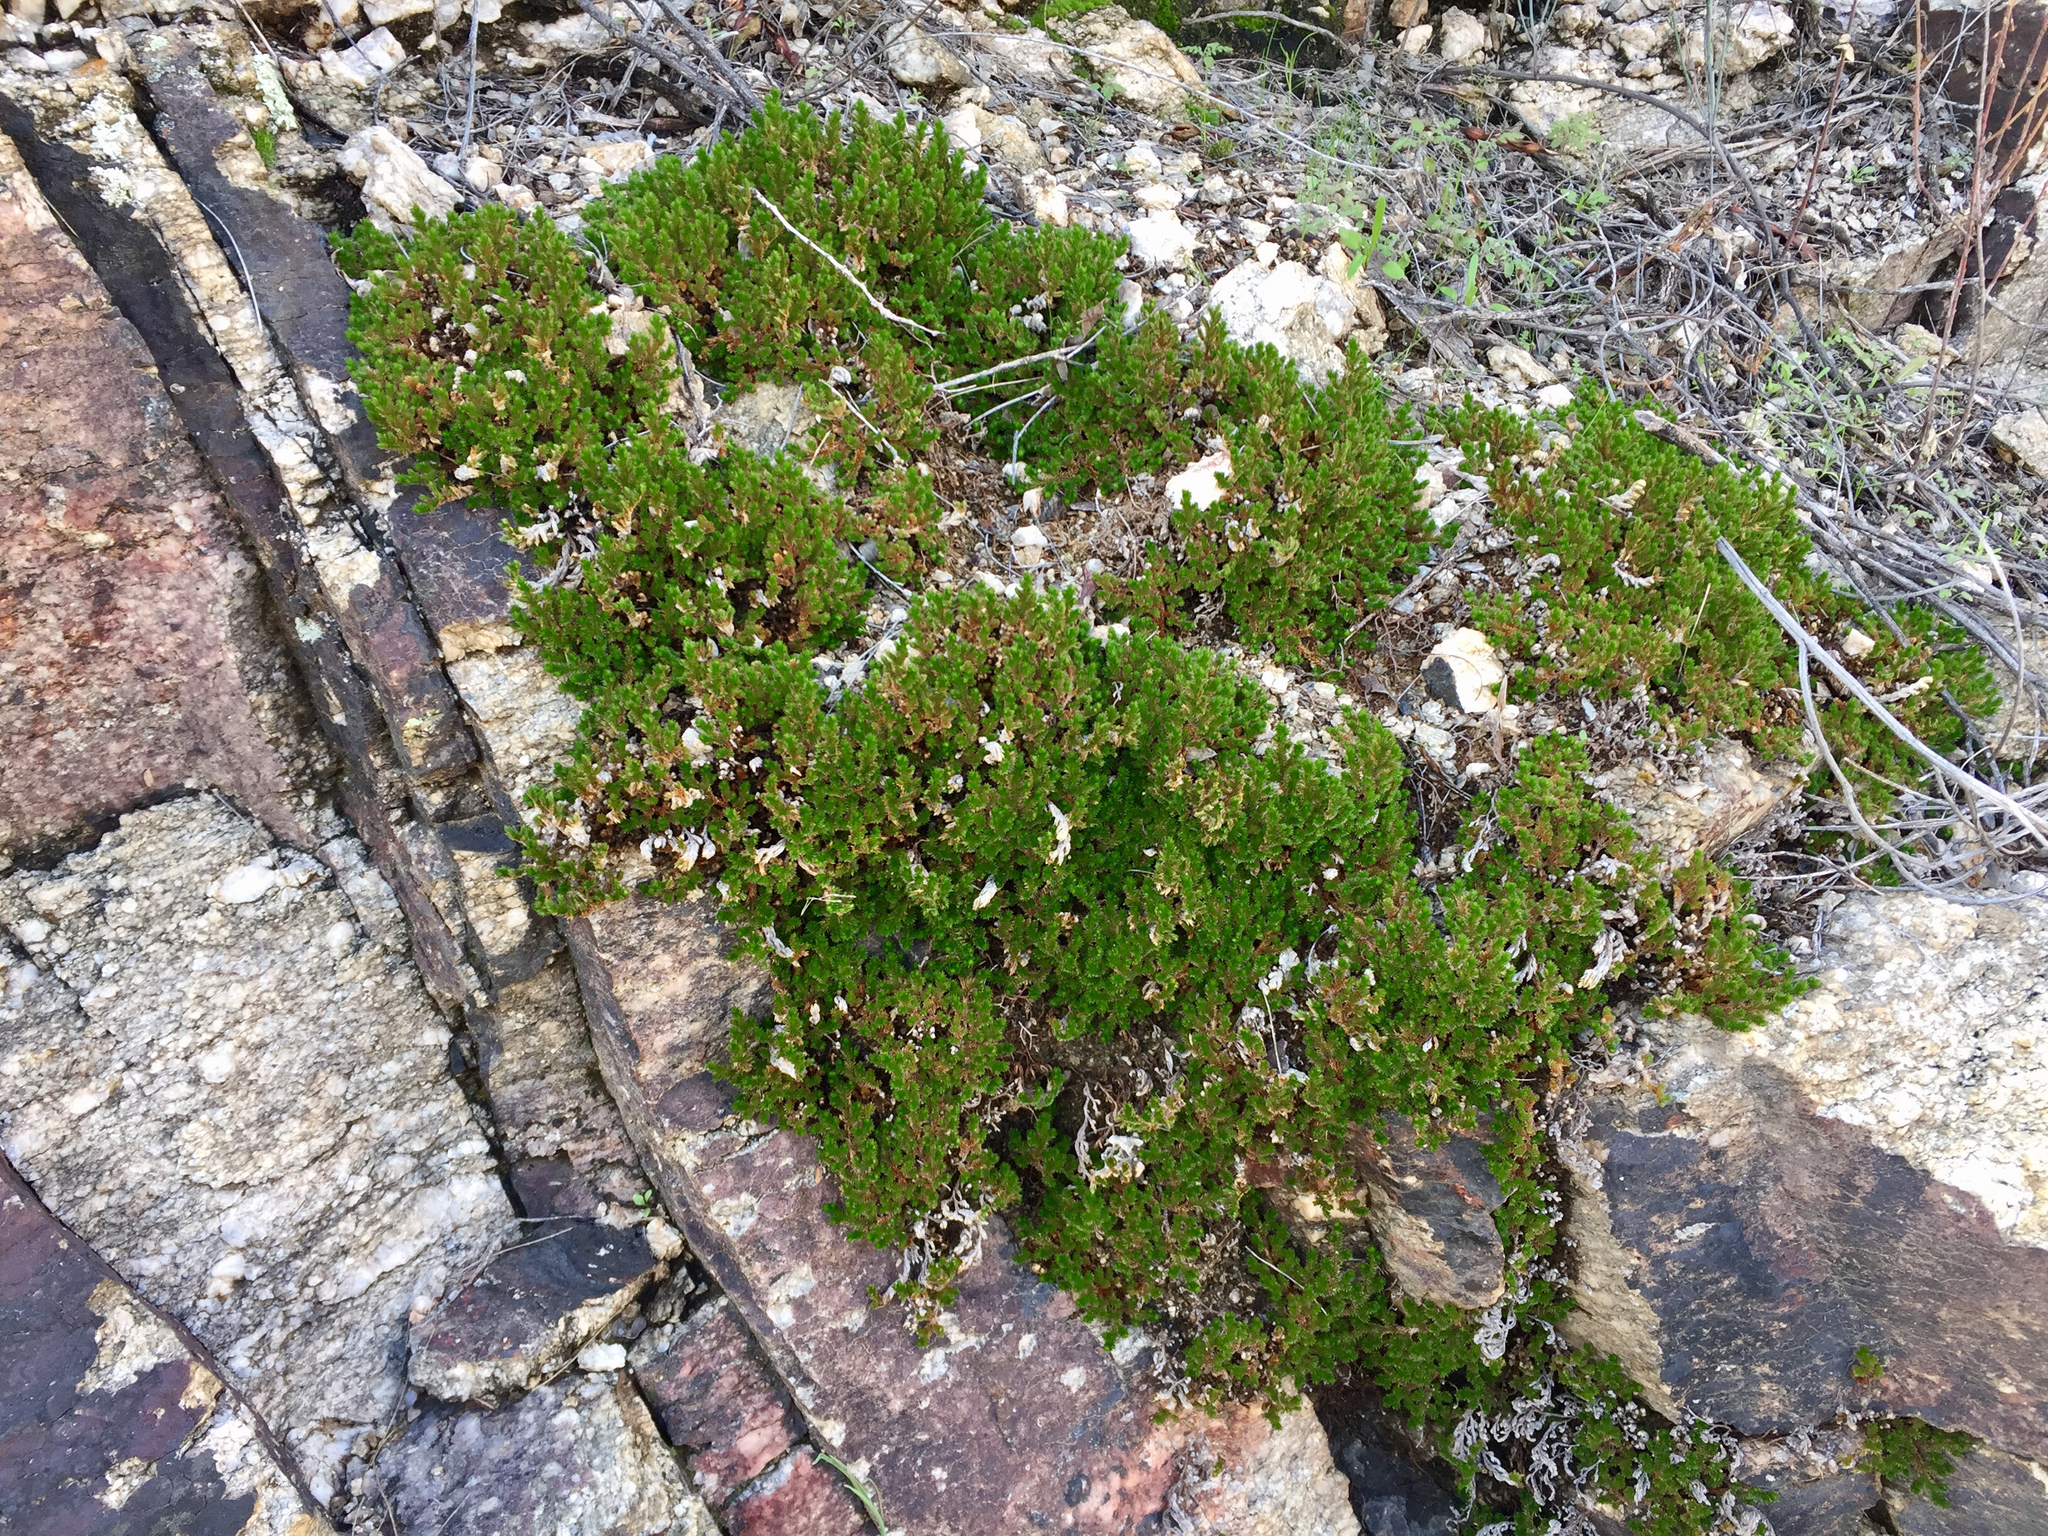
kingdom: Plantae
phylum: Tracheophyta
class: Lycopodiopsida
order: Selaginellales
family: Selaginellaceae
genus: Selaginella
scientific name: Selaginella arizonica
